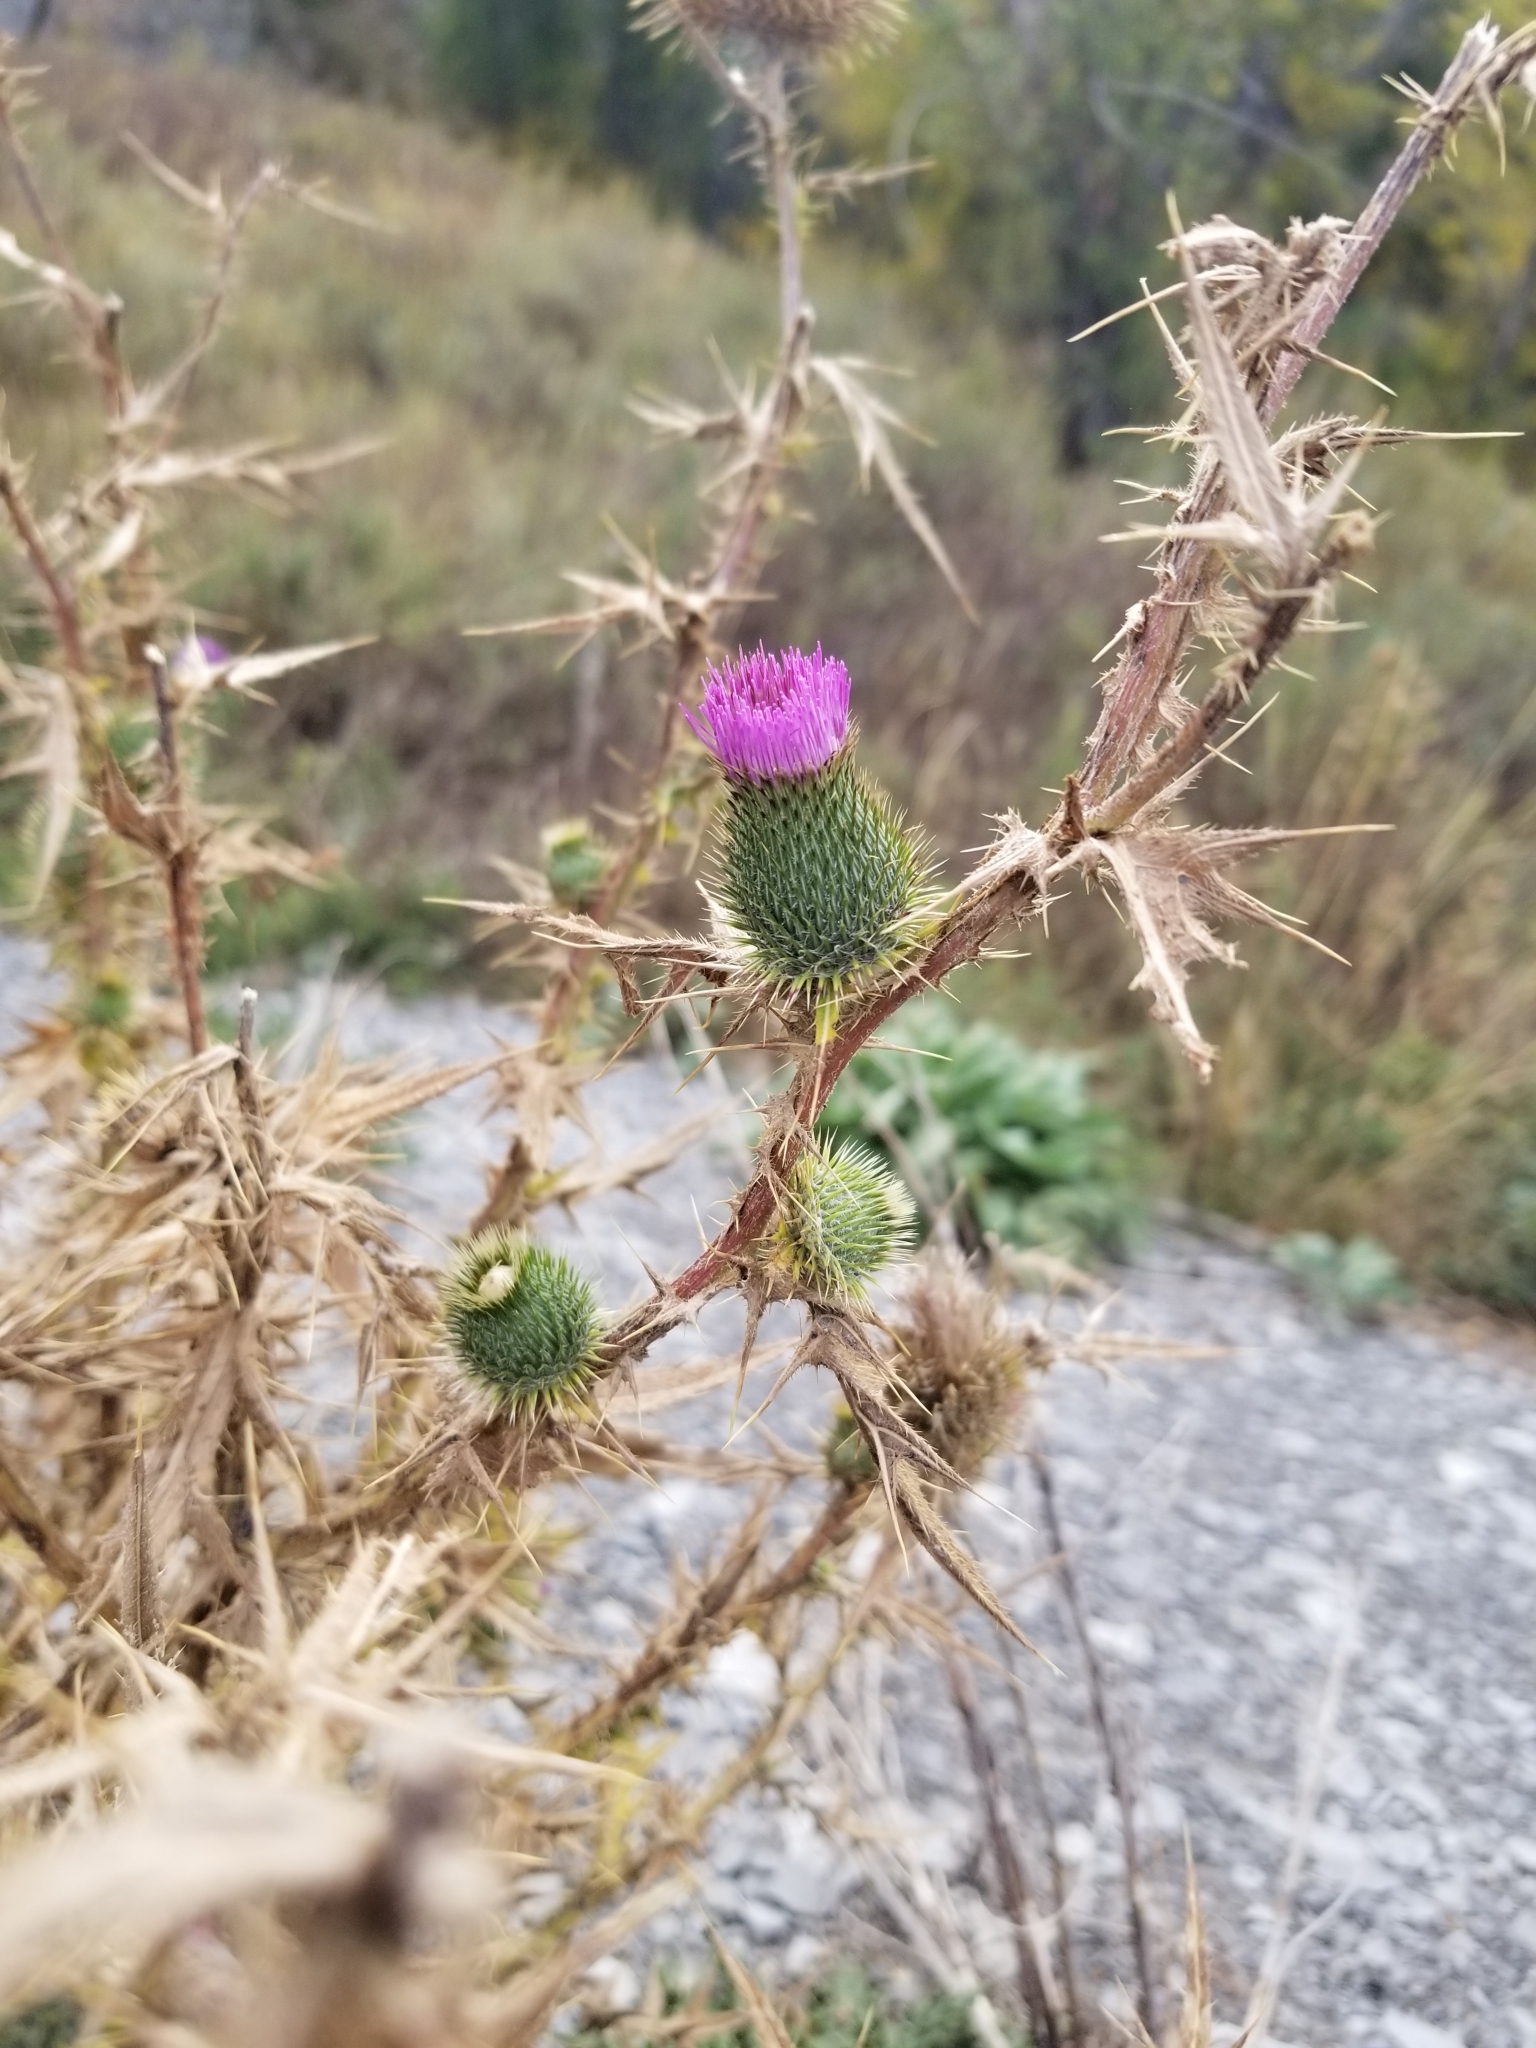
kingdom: Plantae
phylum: Tracheophyta
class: Magnoliopsida
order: Asterales
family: Asteraceae
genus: Cirsium
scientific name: Cirsium vulgare
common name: Bull thistle
